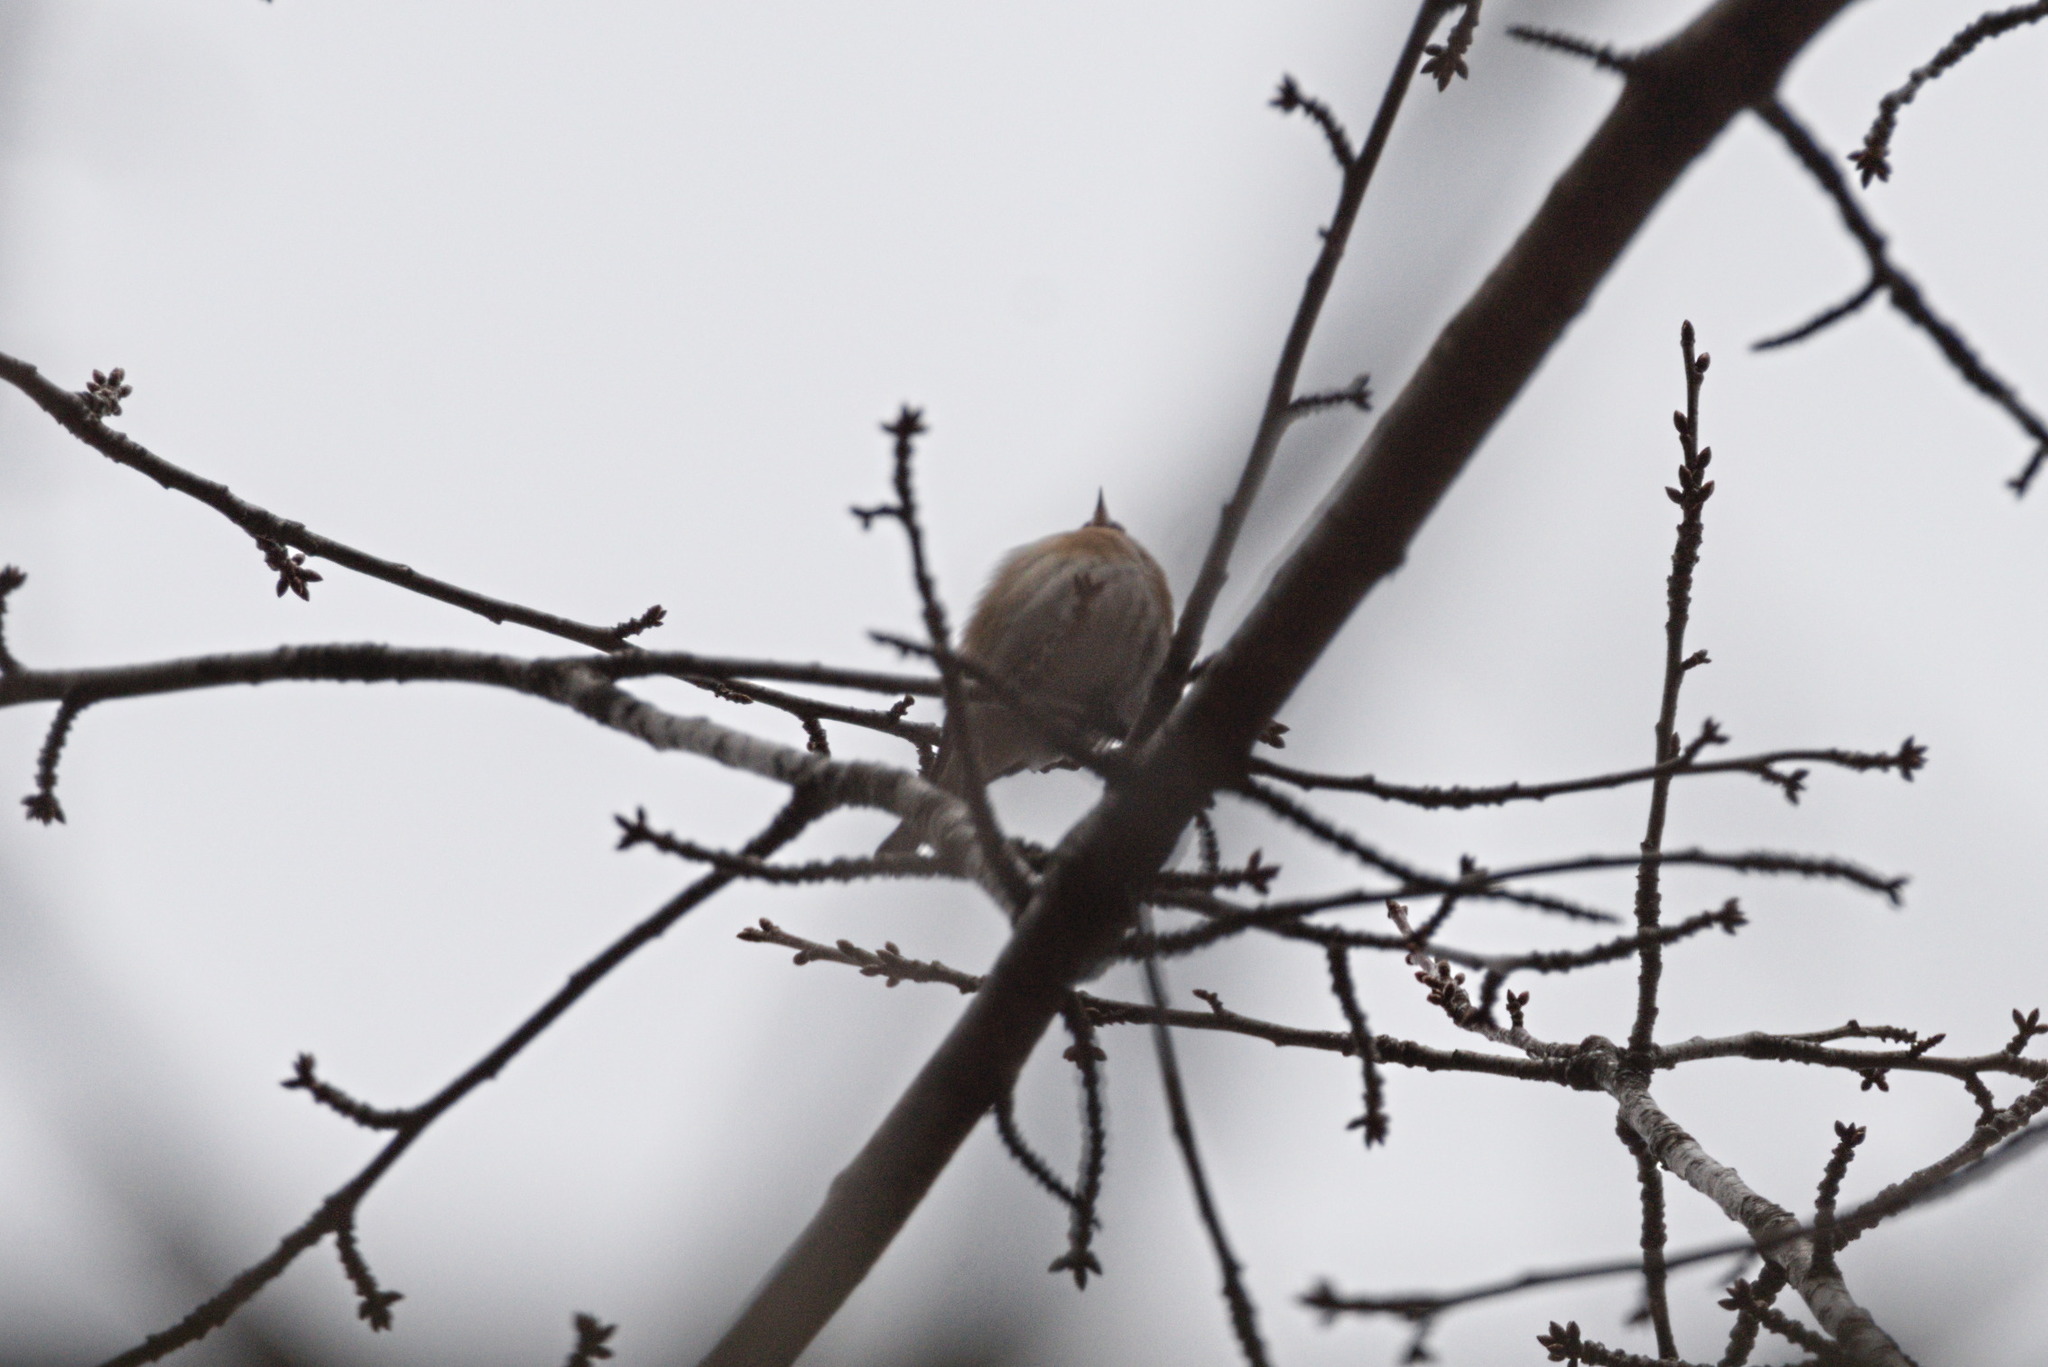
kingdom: Animalia
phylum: Chordata
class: Aves
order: Passeriformes
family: Fringillidae
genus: Carduelis
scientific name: Carduelis carduelis
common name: European goldfinch
